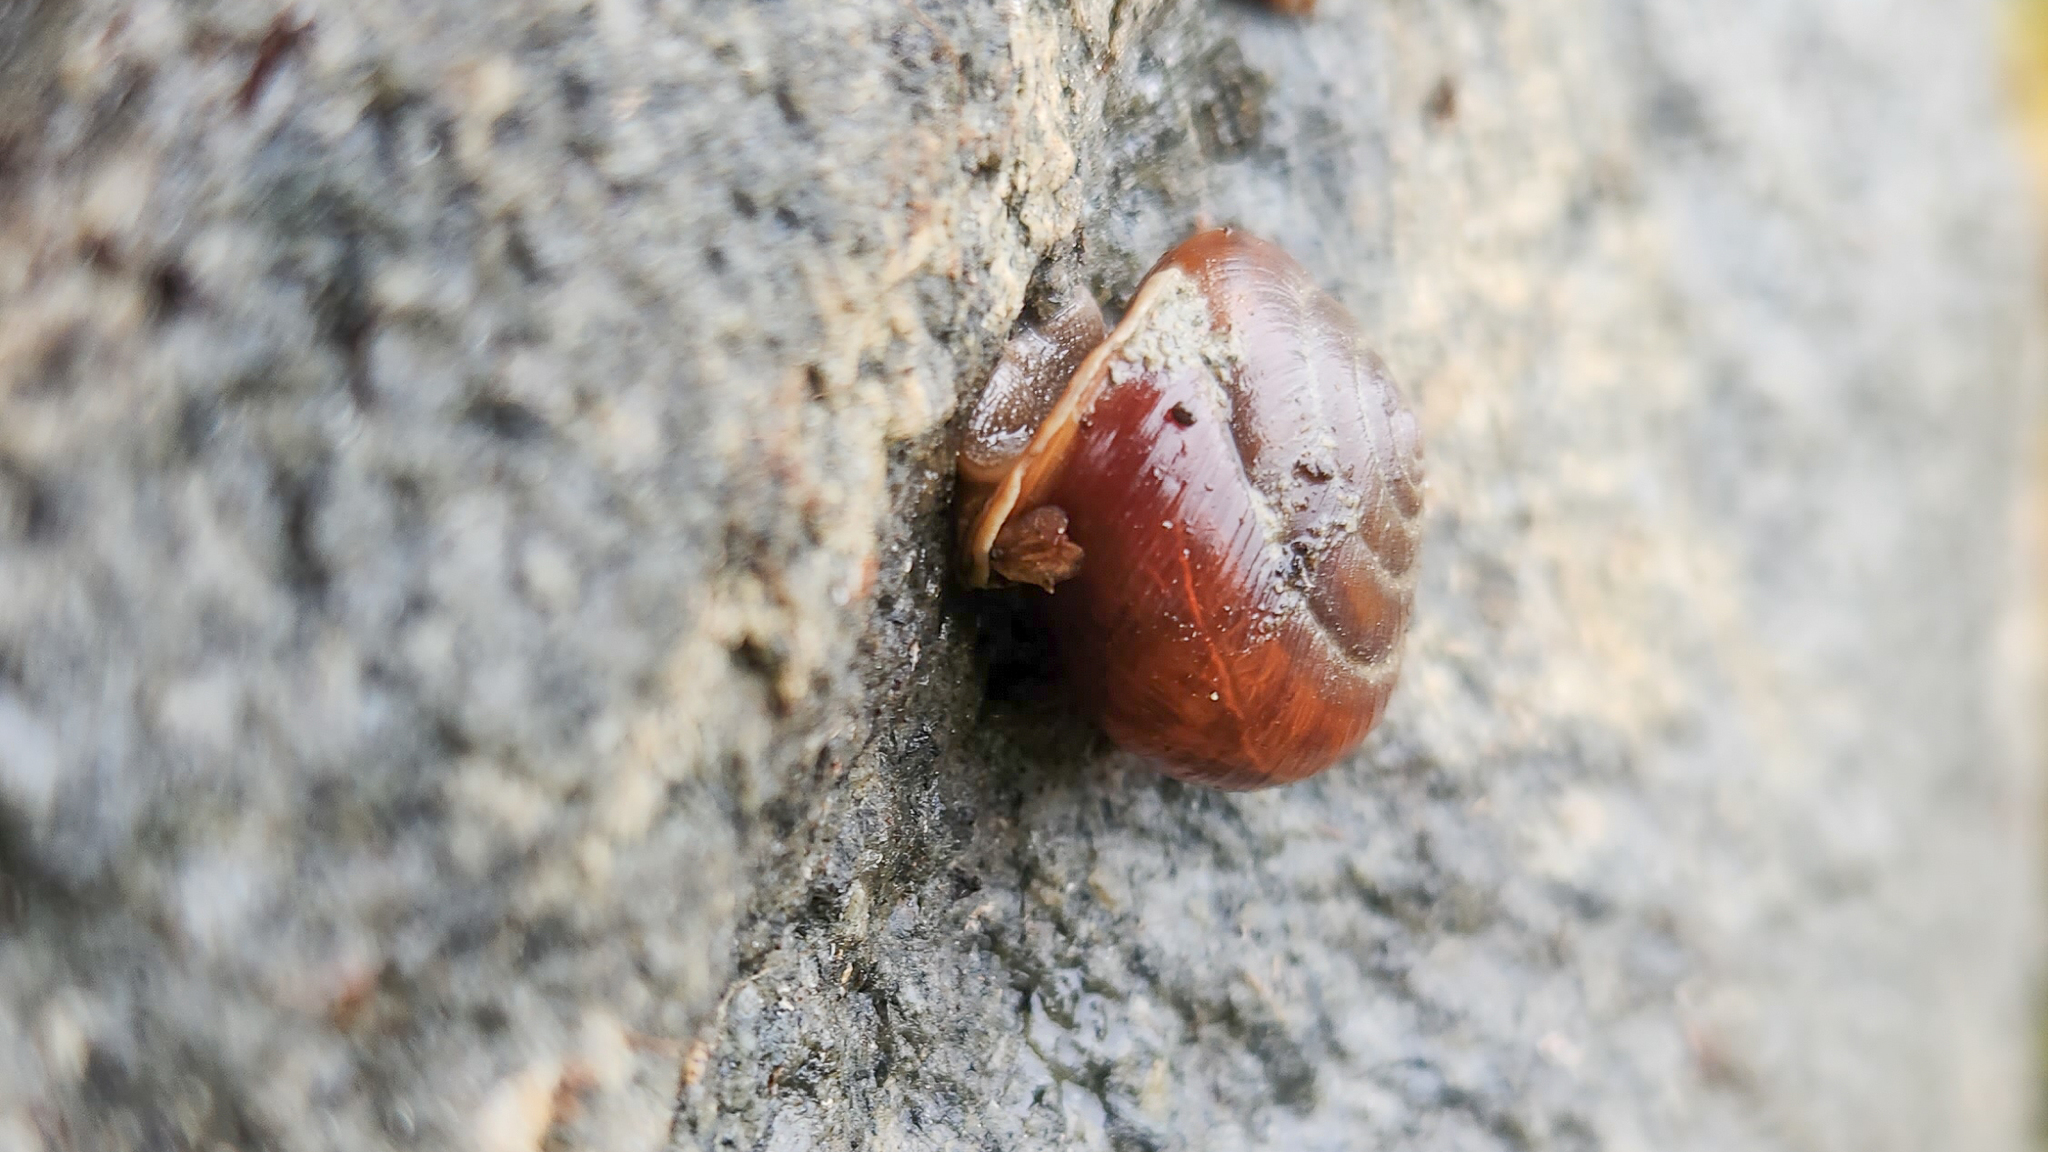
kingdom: Animalia
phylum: Mollusca
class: Gastropoda
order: Stylommatophora
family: Polygyridae
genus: Cryptomastix
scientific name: Cryptomastix devia
